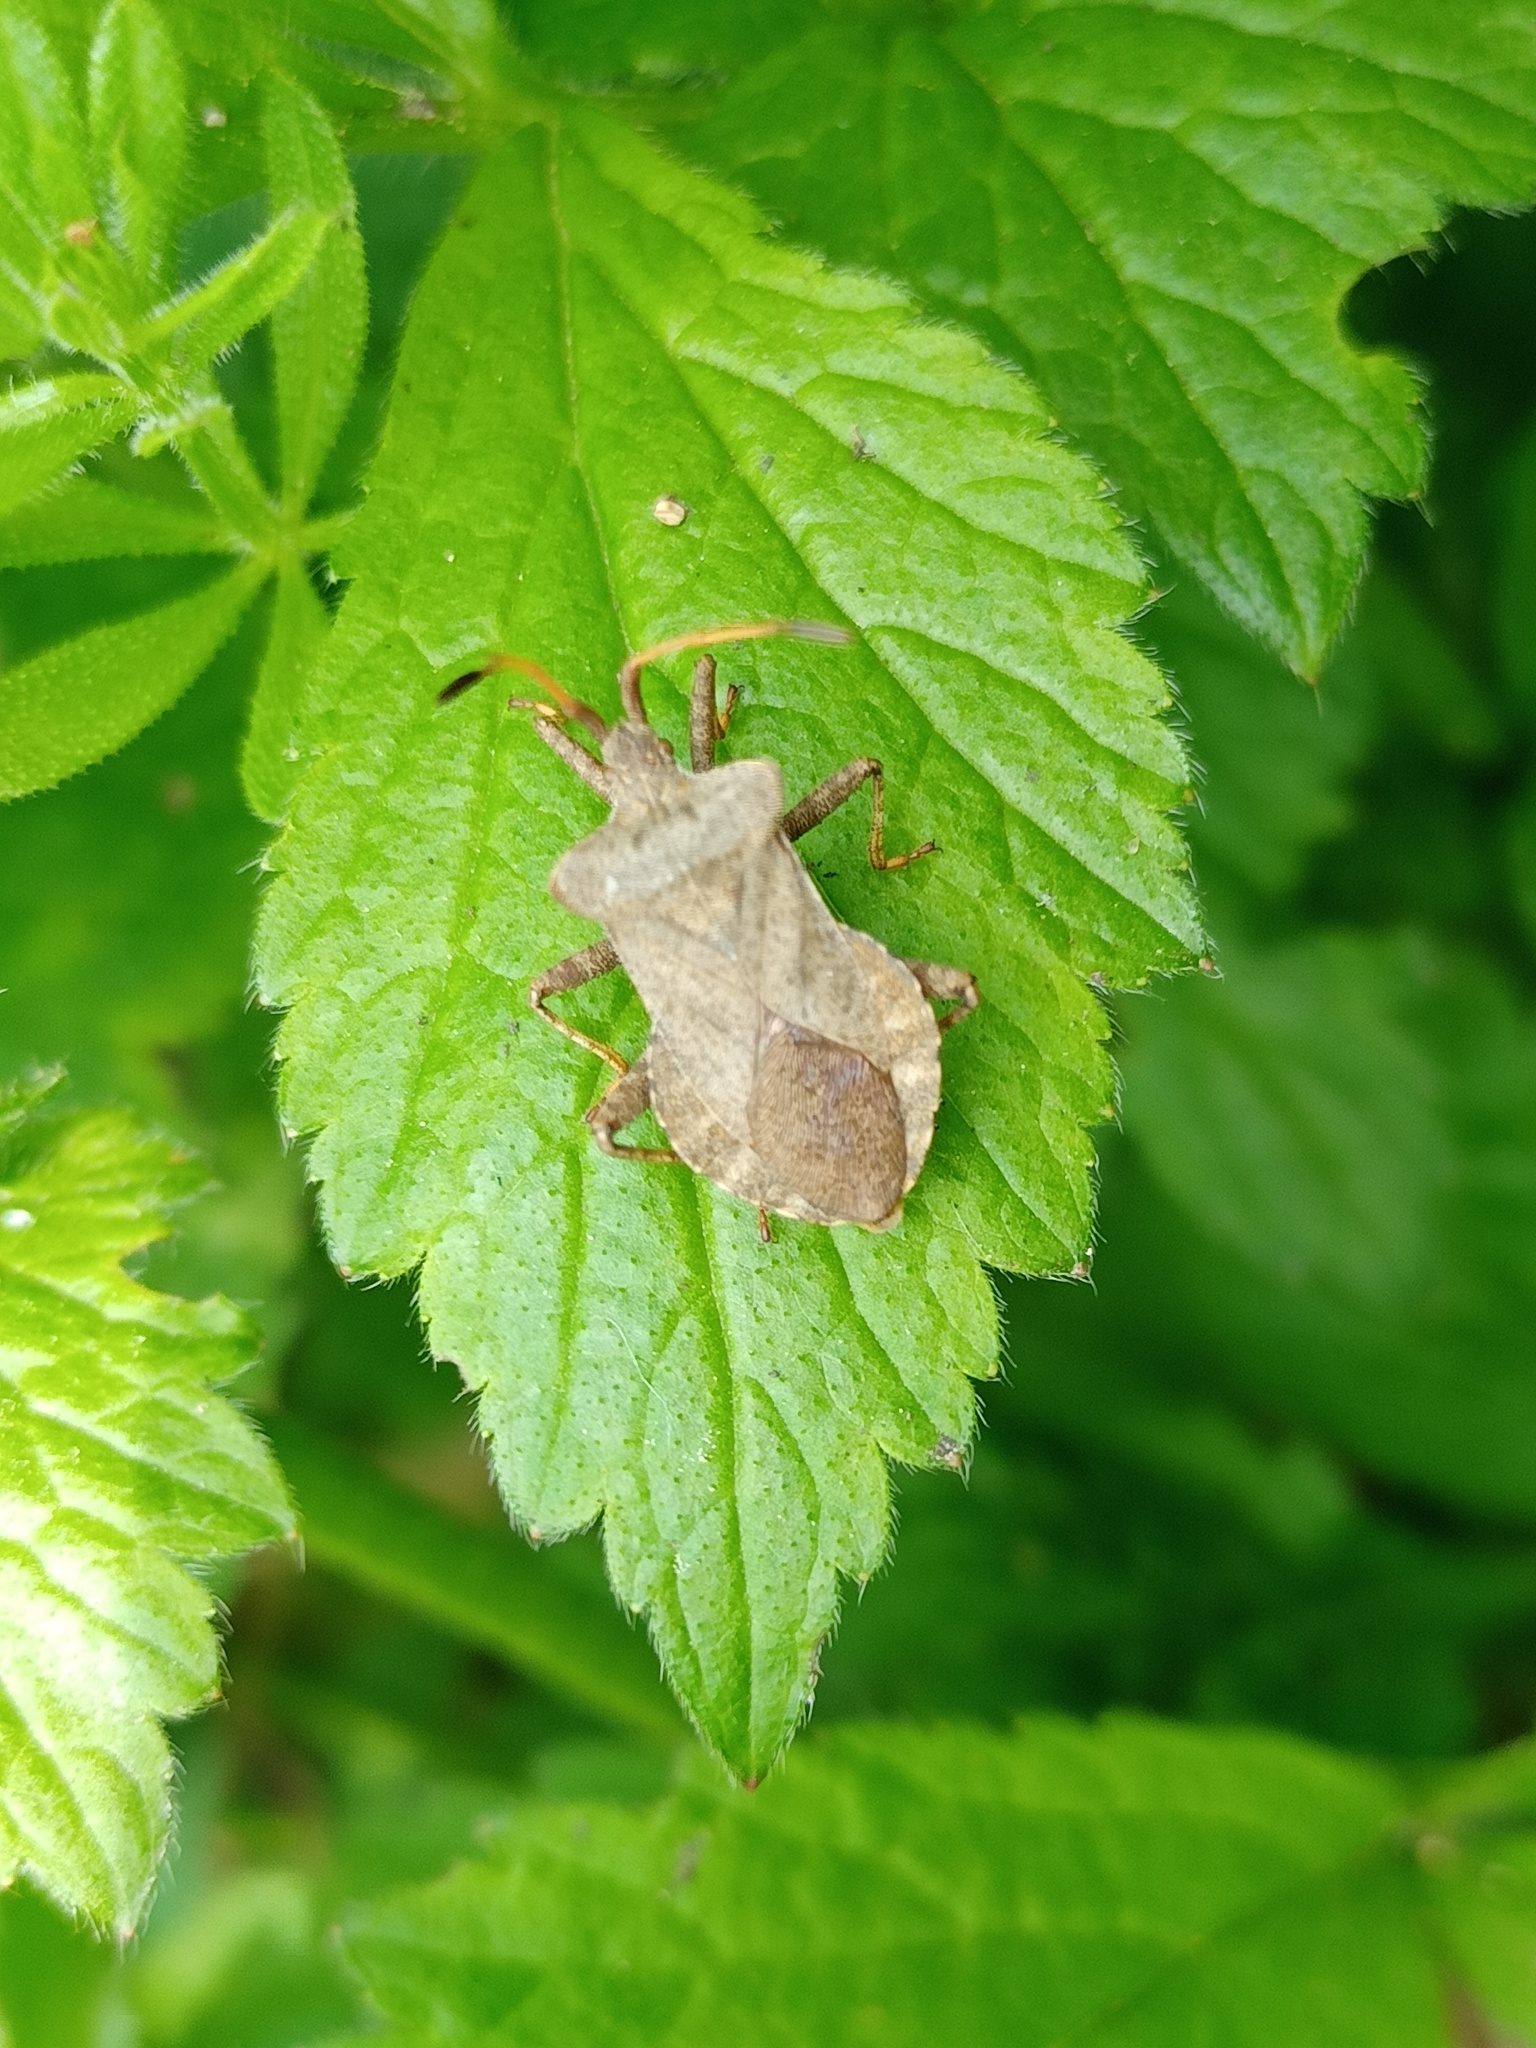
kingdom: Animalia
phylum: Arthropoda
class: Insecta
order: Hemiptera
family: Coreidae
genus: Coreus
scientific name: Coreus marginatus
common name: Dock bug
